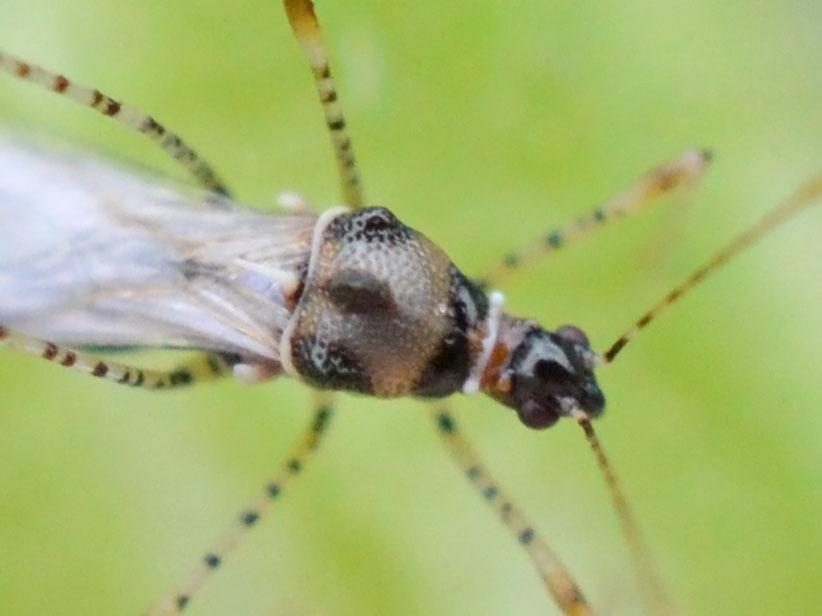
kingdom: Animalia
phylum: Arthropoda
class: Insecta
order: Hemiptera
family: Berytidae
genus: Gampsocoris
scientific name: Gampsocoris culicinus
